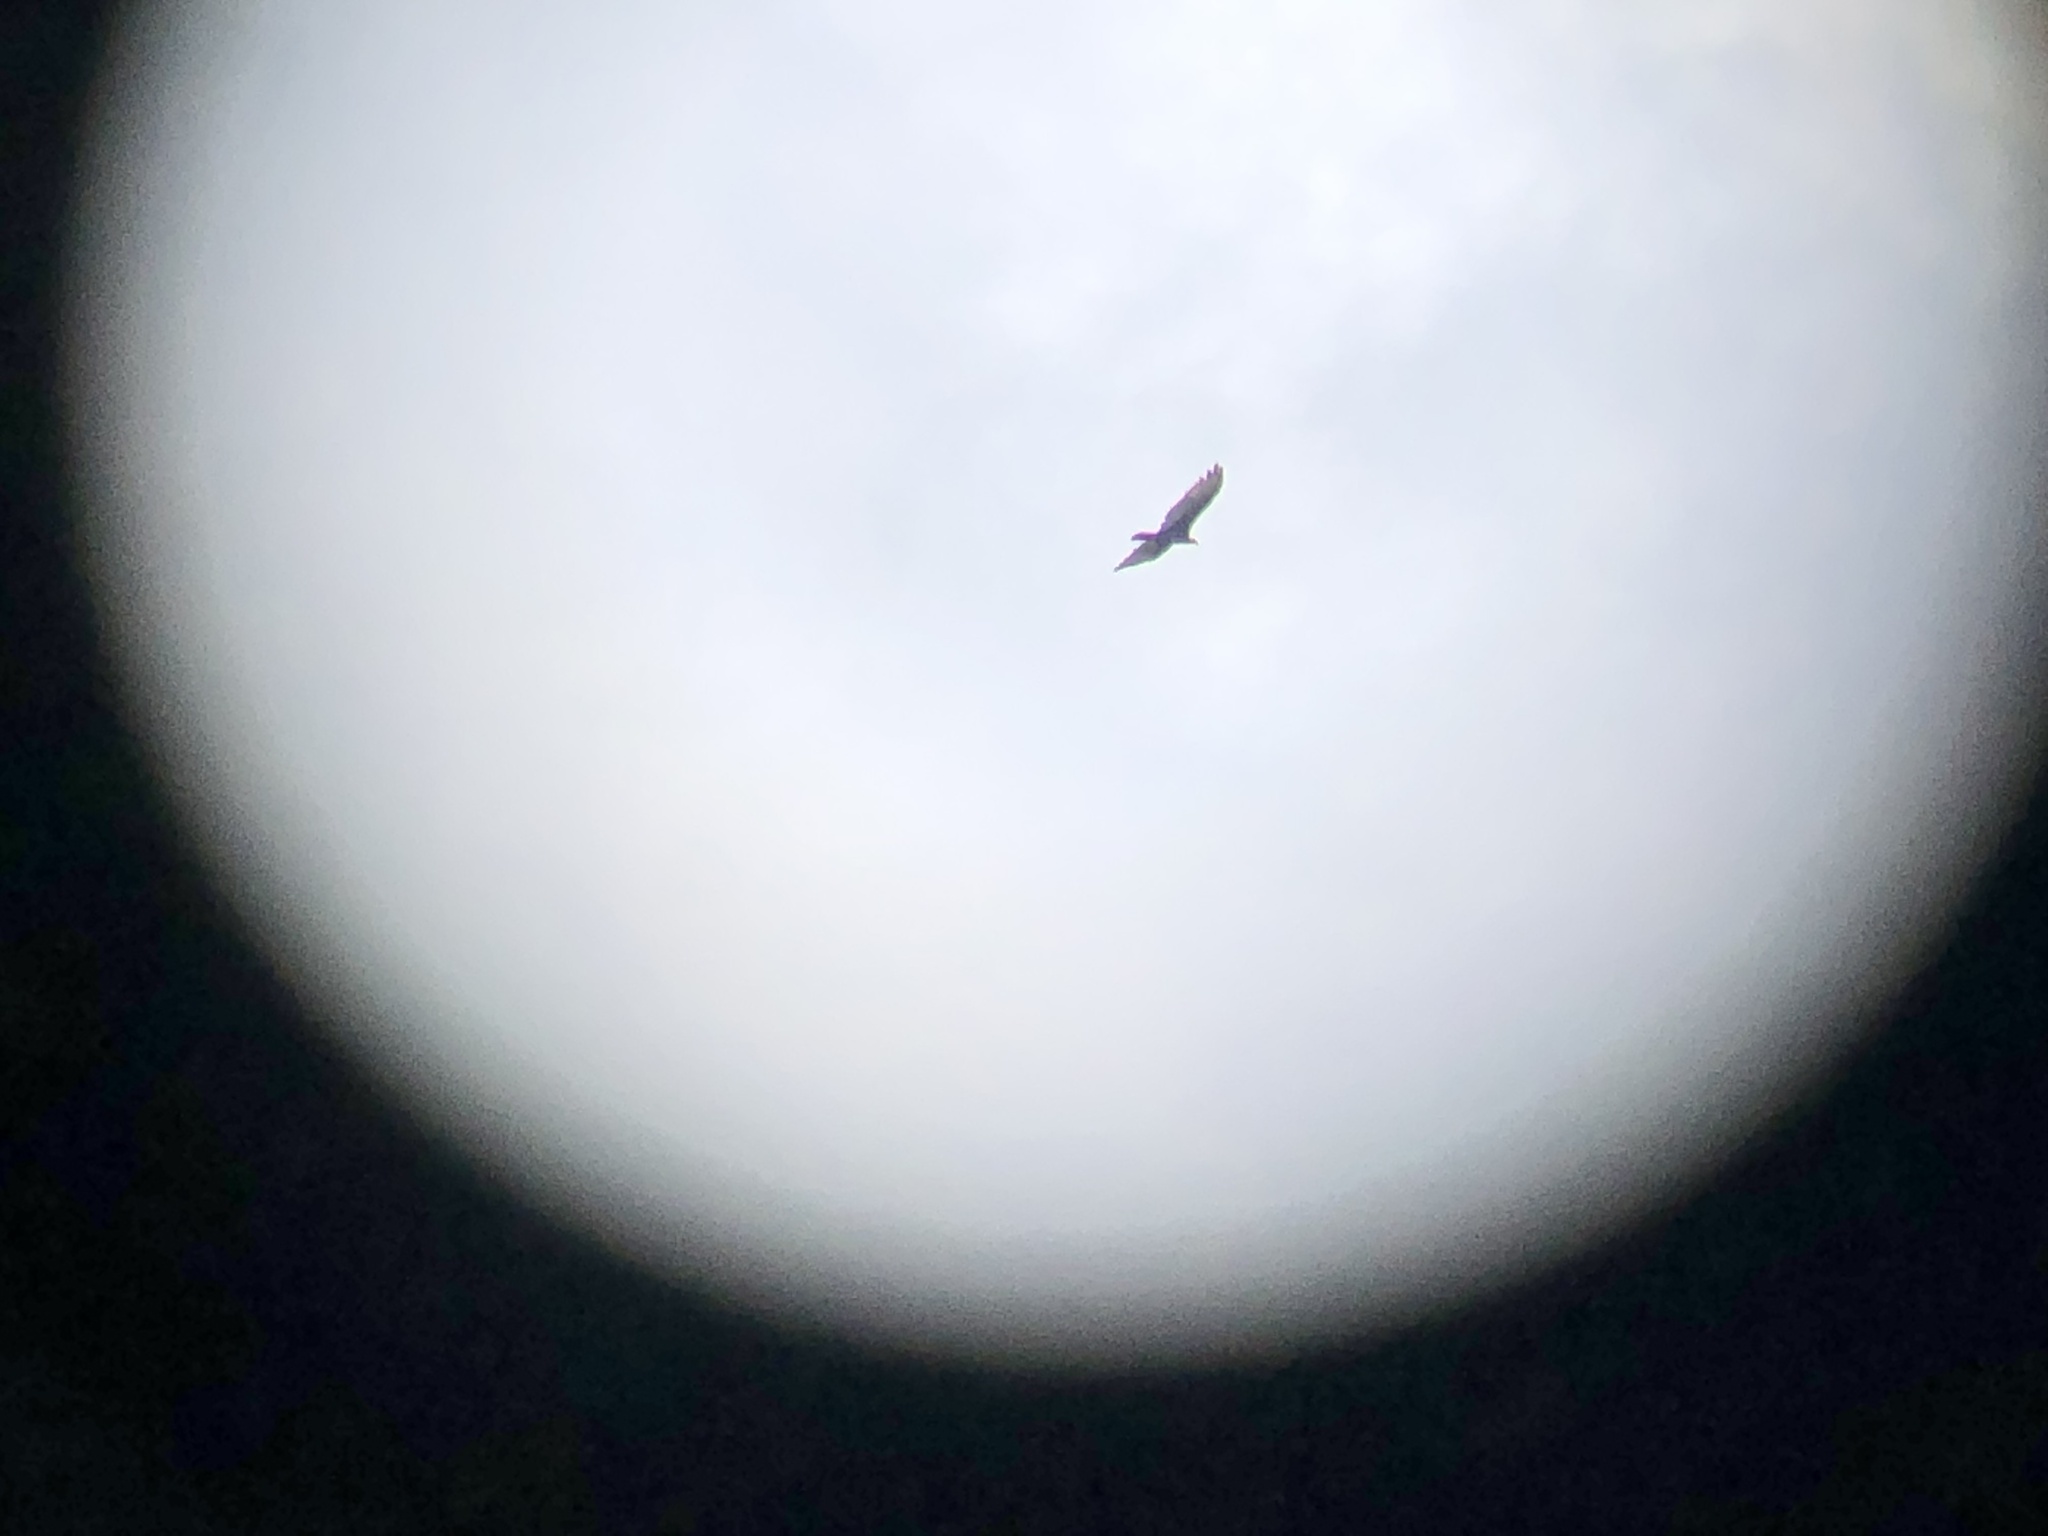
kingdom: Animalia
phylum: Chordata
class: Aves
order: Accipitriformes
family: Cathartidae
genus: Cathartes
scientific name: Cathartes aura
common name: Turkey vulture
